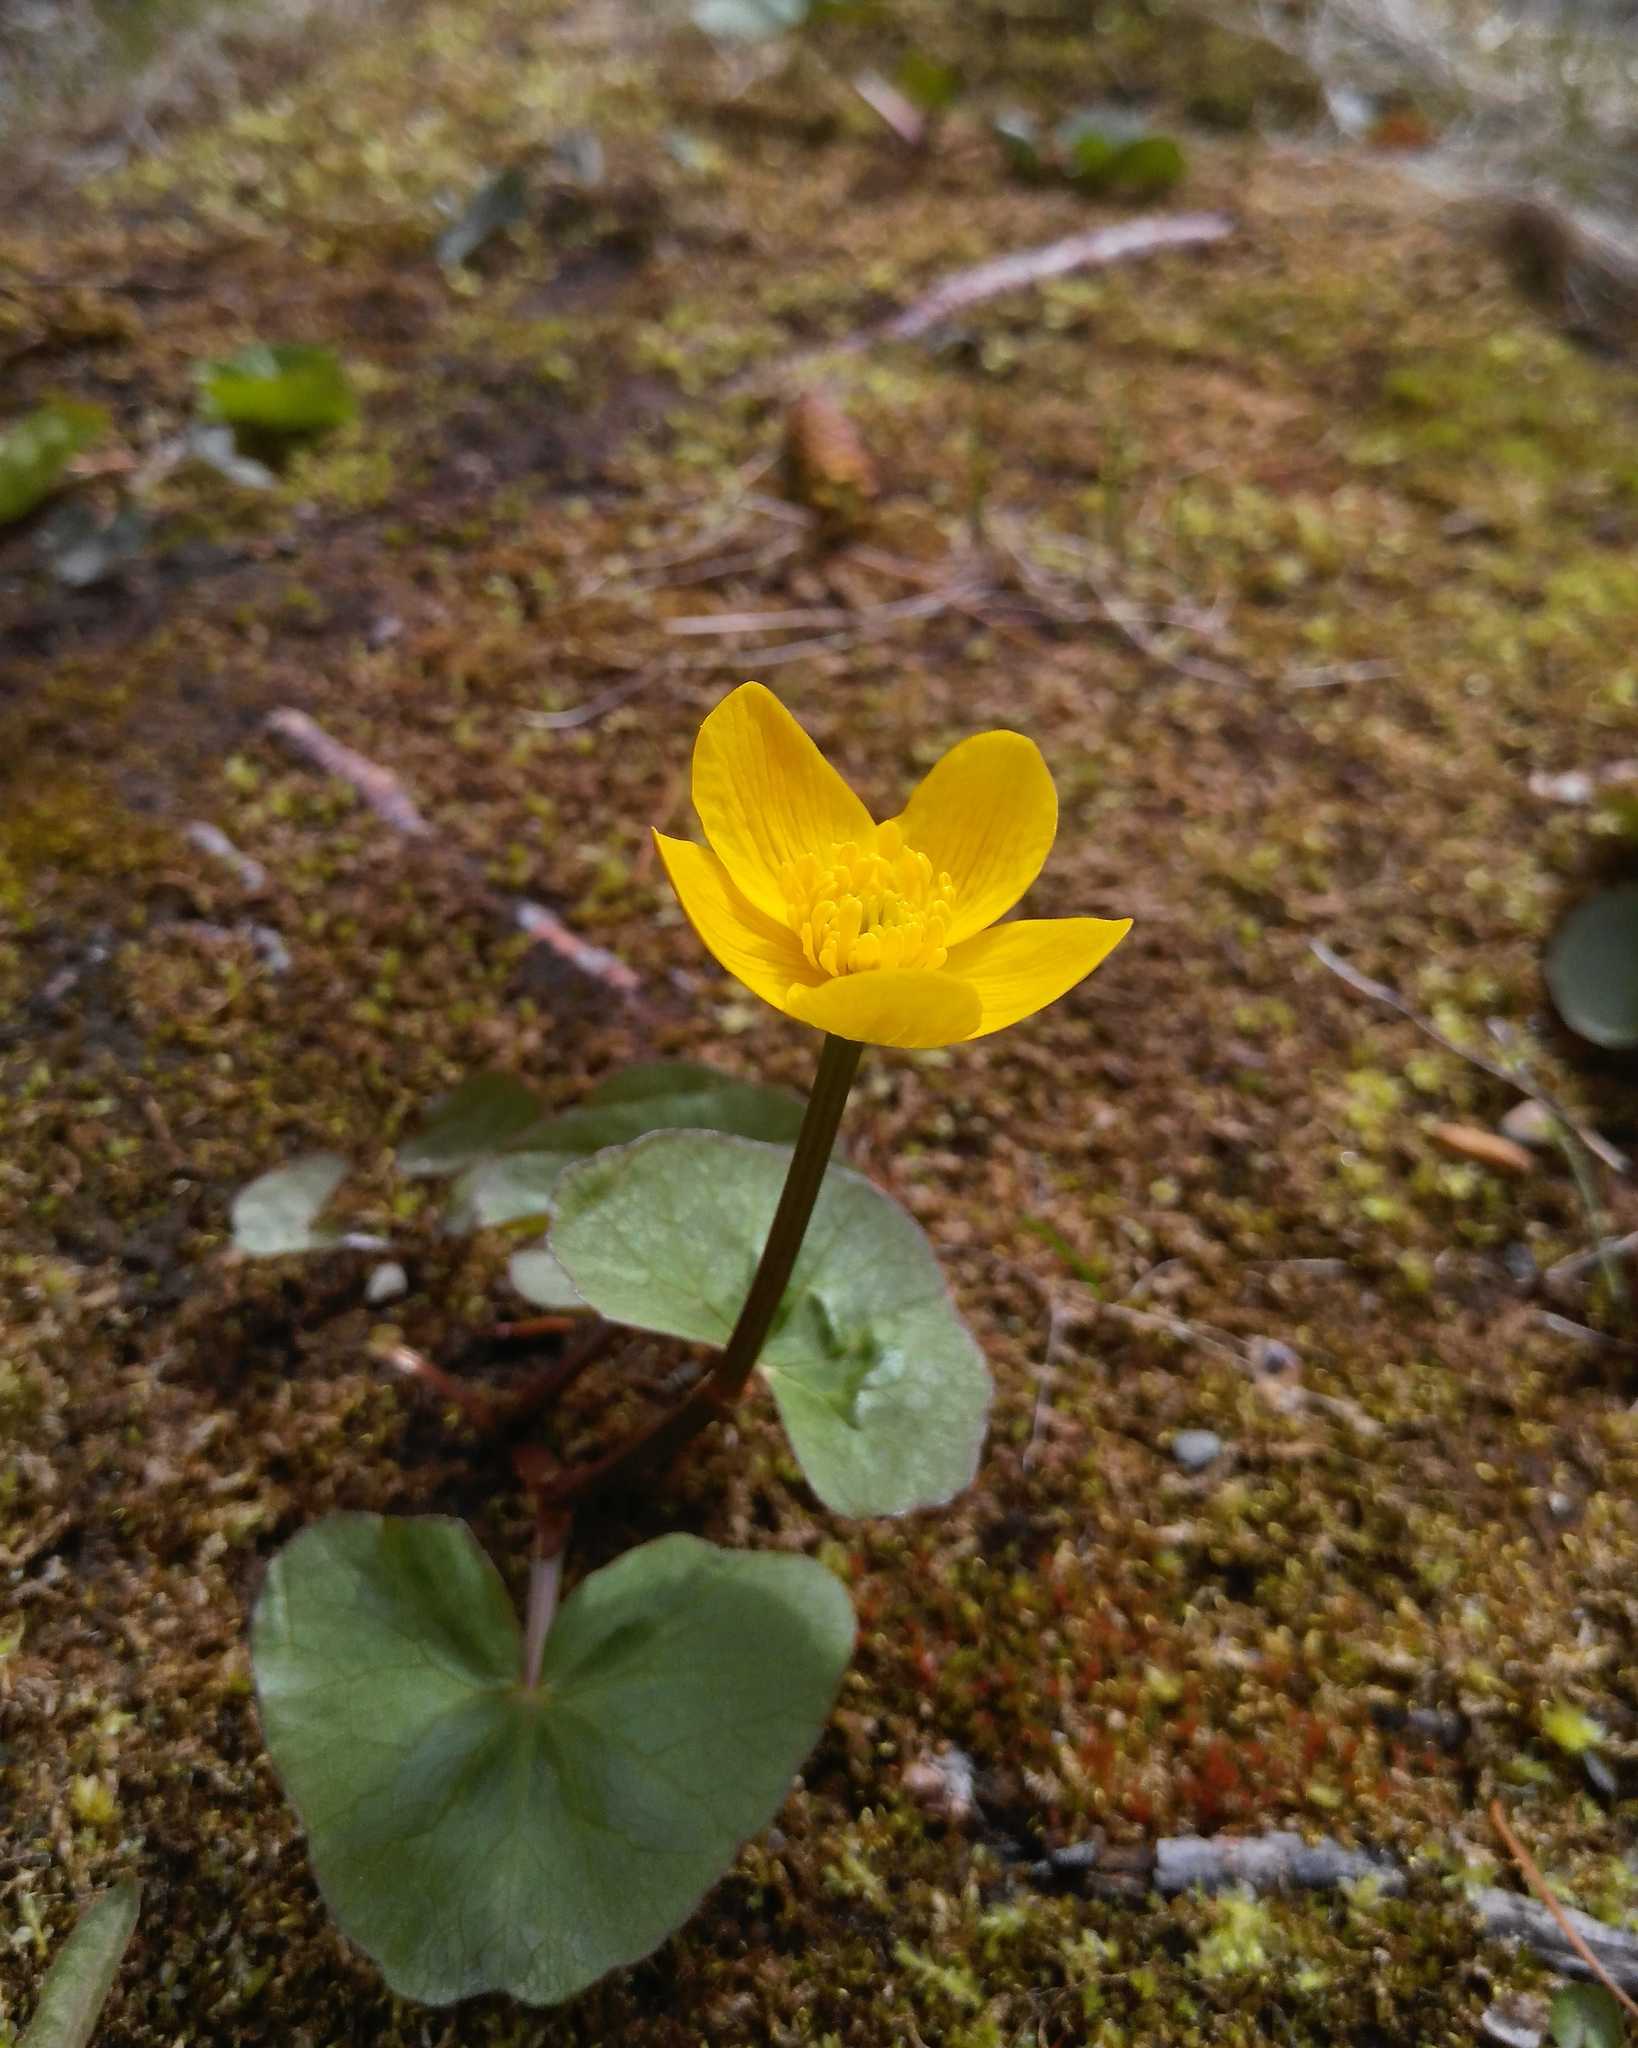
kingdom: Plantae
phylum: Tracheophyta
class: Magnoliopsida
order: Ranunculales
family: Ranunculaceae
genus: Caltha
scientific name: Caltha palustris
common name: Marsh marigold
